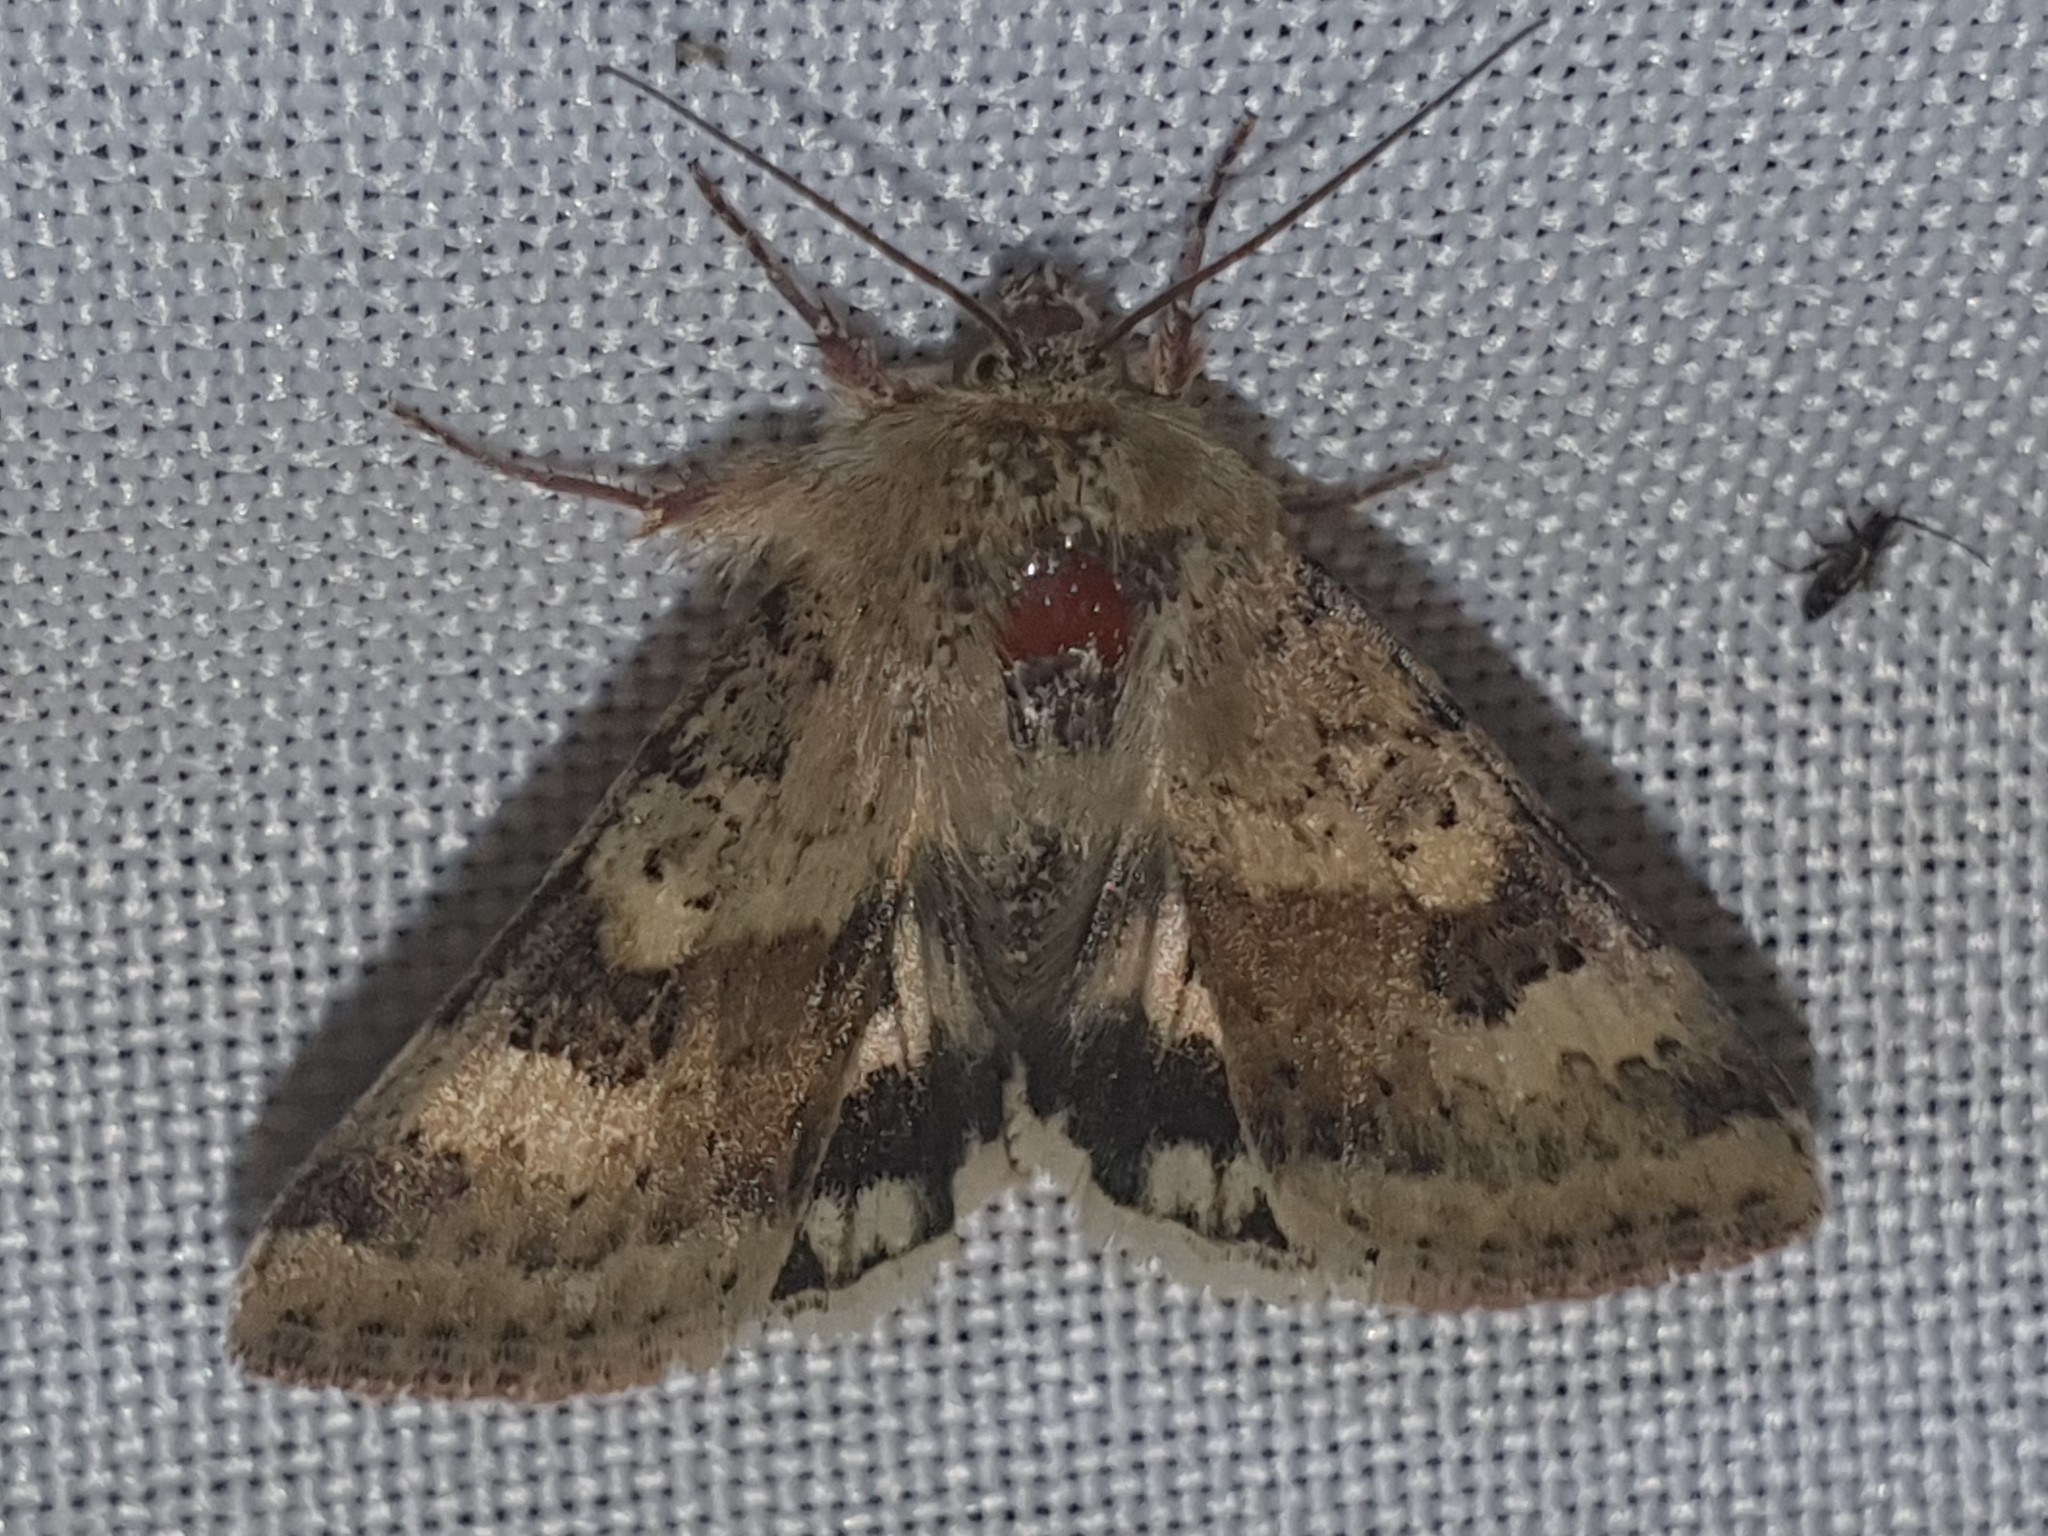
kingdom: Animalia
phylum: Arthropoda
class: Insecta
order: Lepidoptera
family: Noctuidae
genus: Heliothis
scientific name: Heliothis viriplaca
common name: Marbled clover
